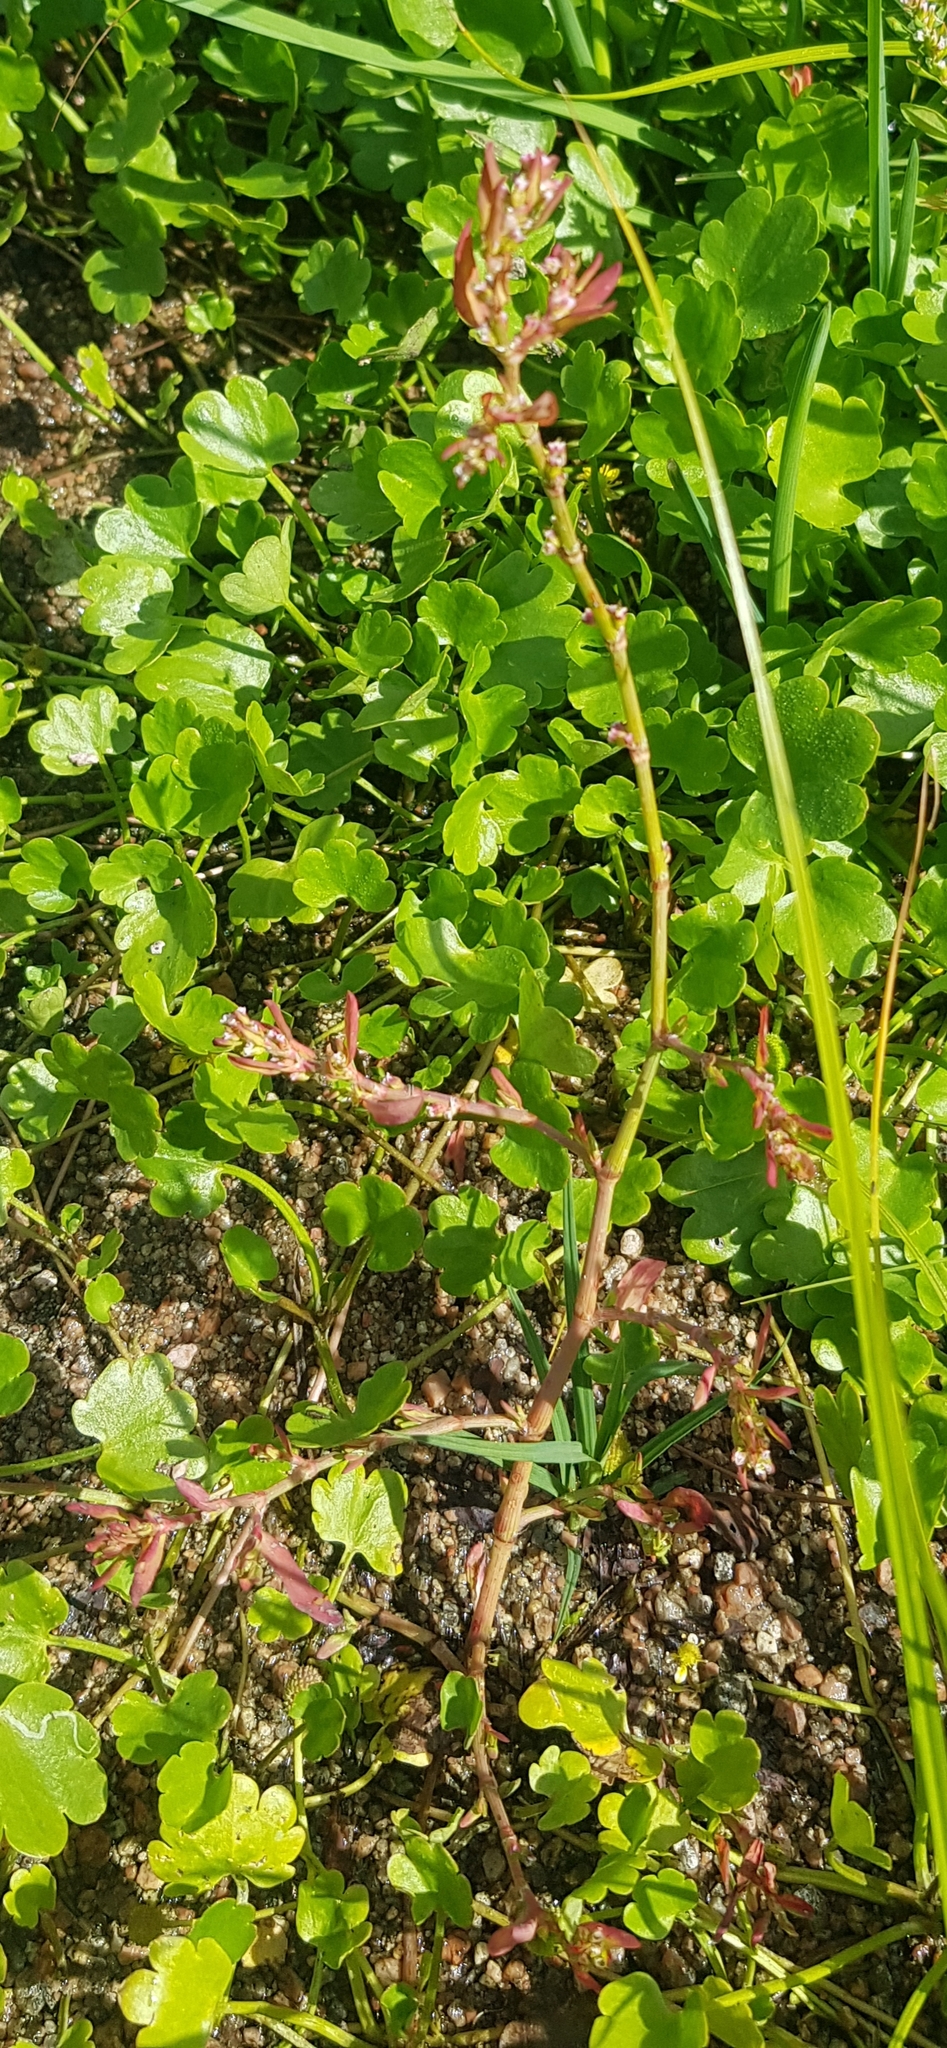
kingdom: Plantae
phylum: Tracheophyta
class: Magnoliopsida
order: Saxifragales
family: Saxifragaceae
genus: Micranthes
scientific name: Micranthes nelsoniana
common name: Nelson's saxifrage
